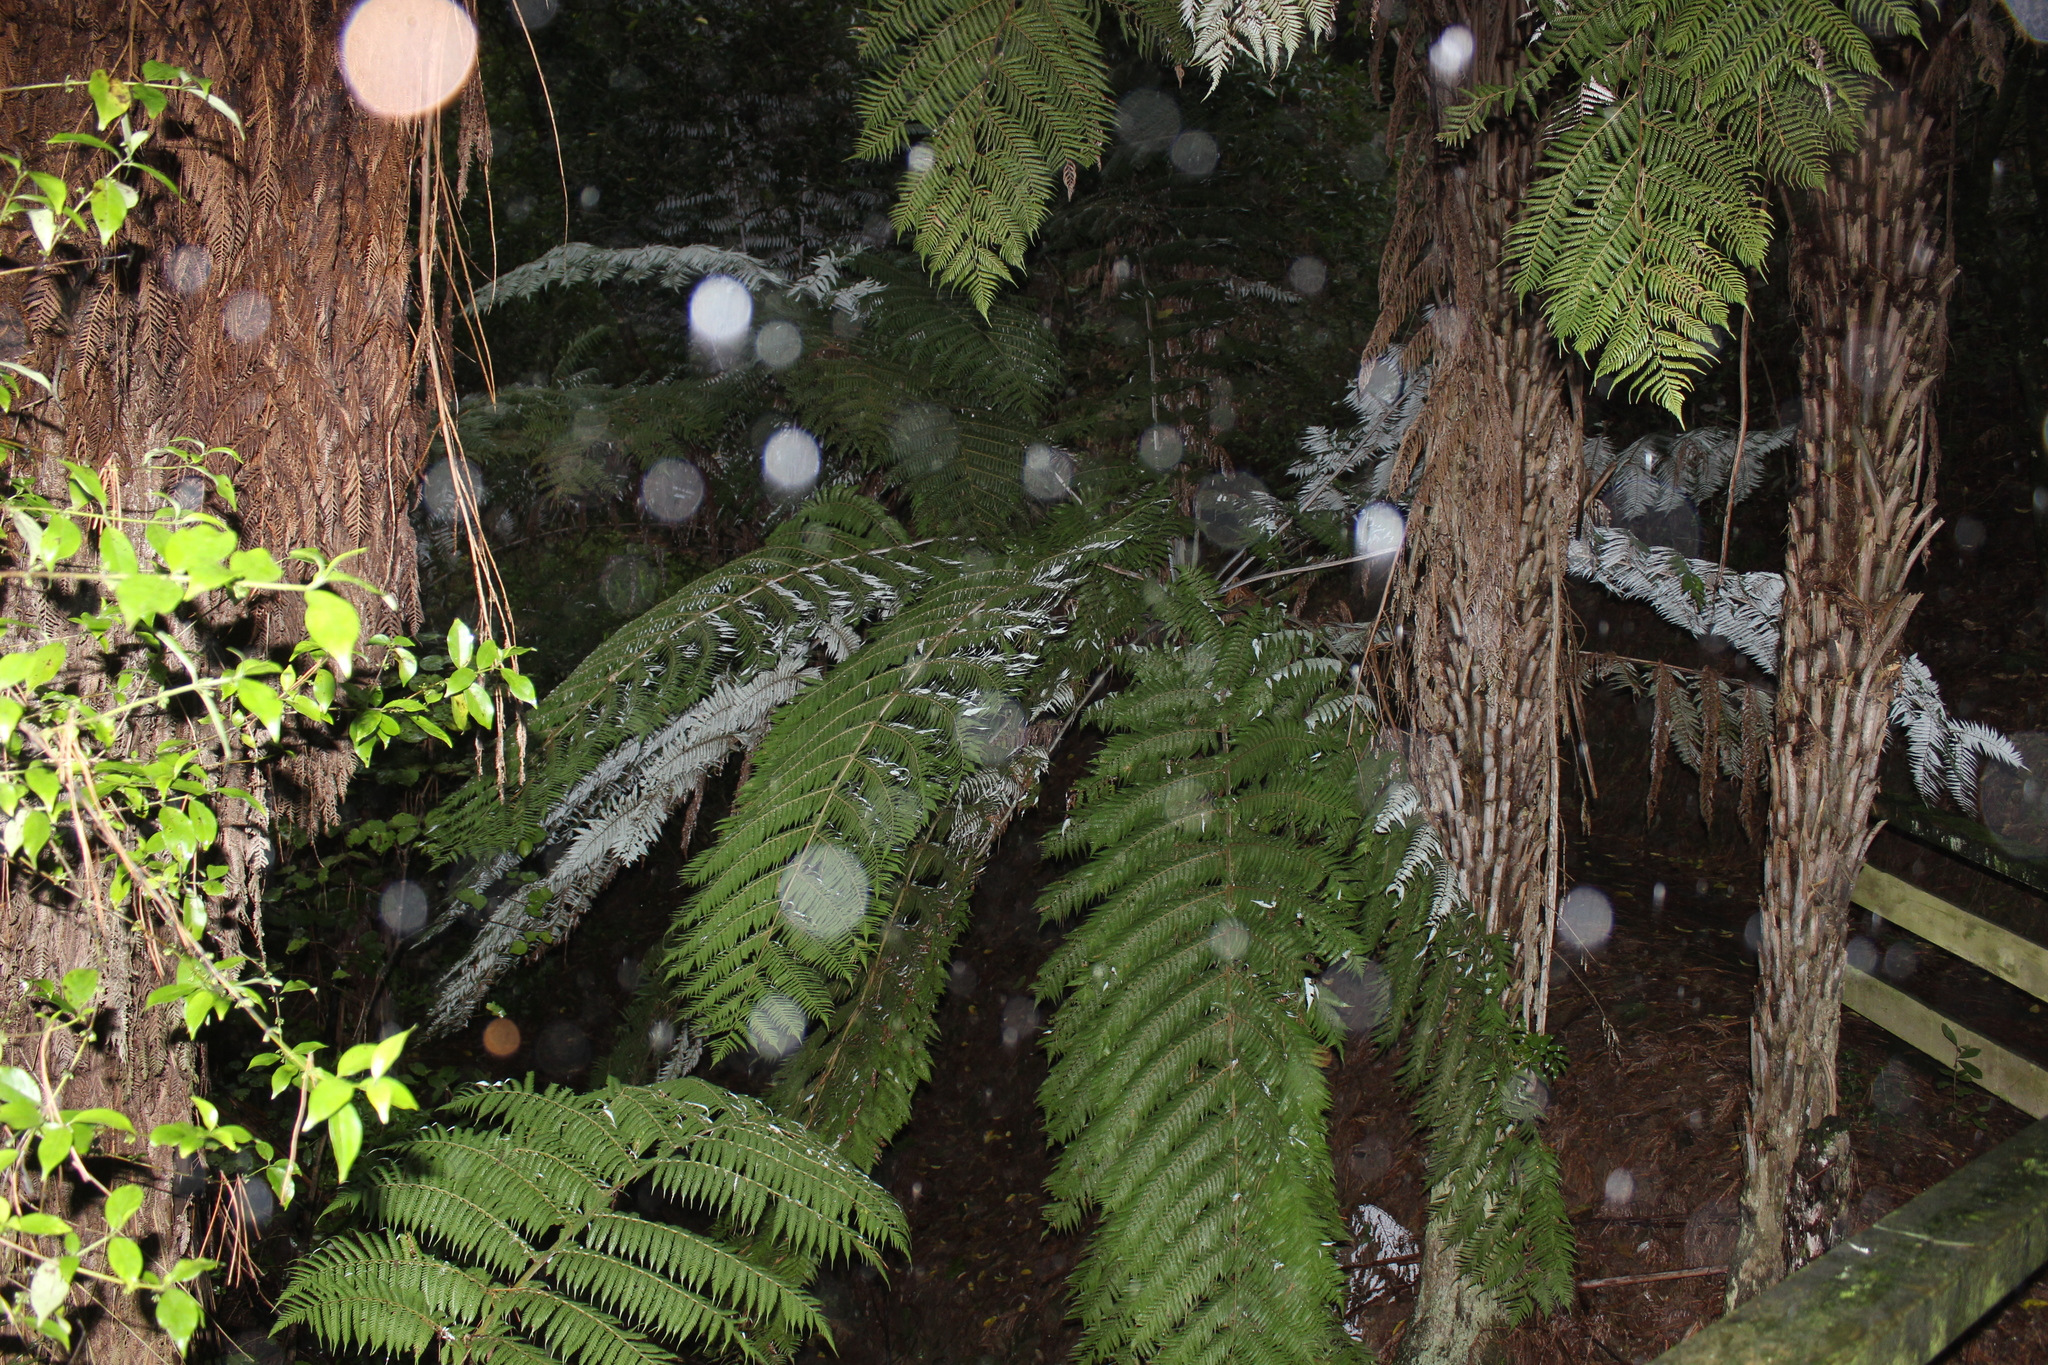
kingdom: Plantae
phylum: Tracheophyta
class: Polypodiopsida
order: Cyatheales
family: Cyatheaceae
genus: Alsophila
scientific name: Alsophila dealbata
